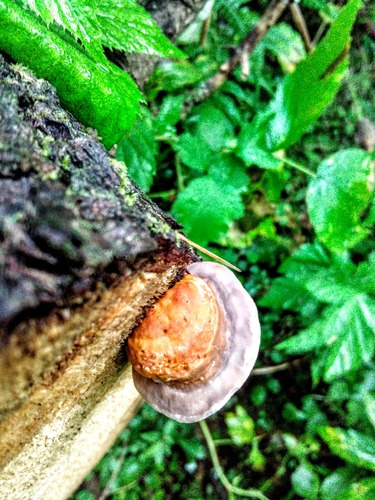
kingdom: Fungi
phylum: Basidiomycota
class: Agaricomycetes
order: Polyporales
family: Fomitopsidaceae
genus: Fomitopsis
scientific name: Fomitopsis pinicola
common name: Red-belted bracket
